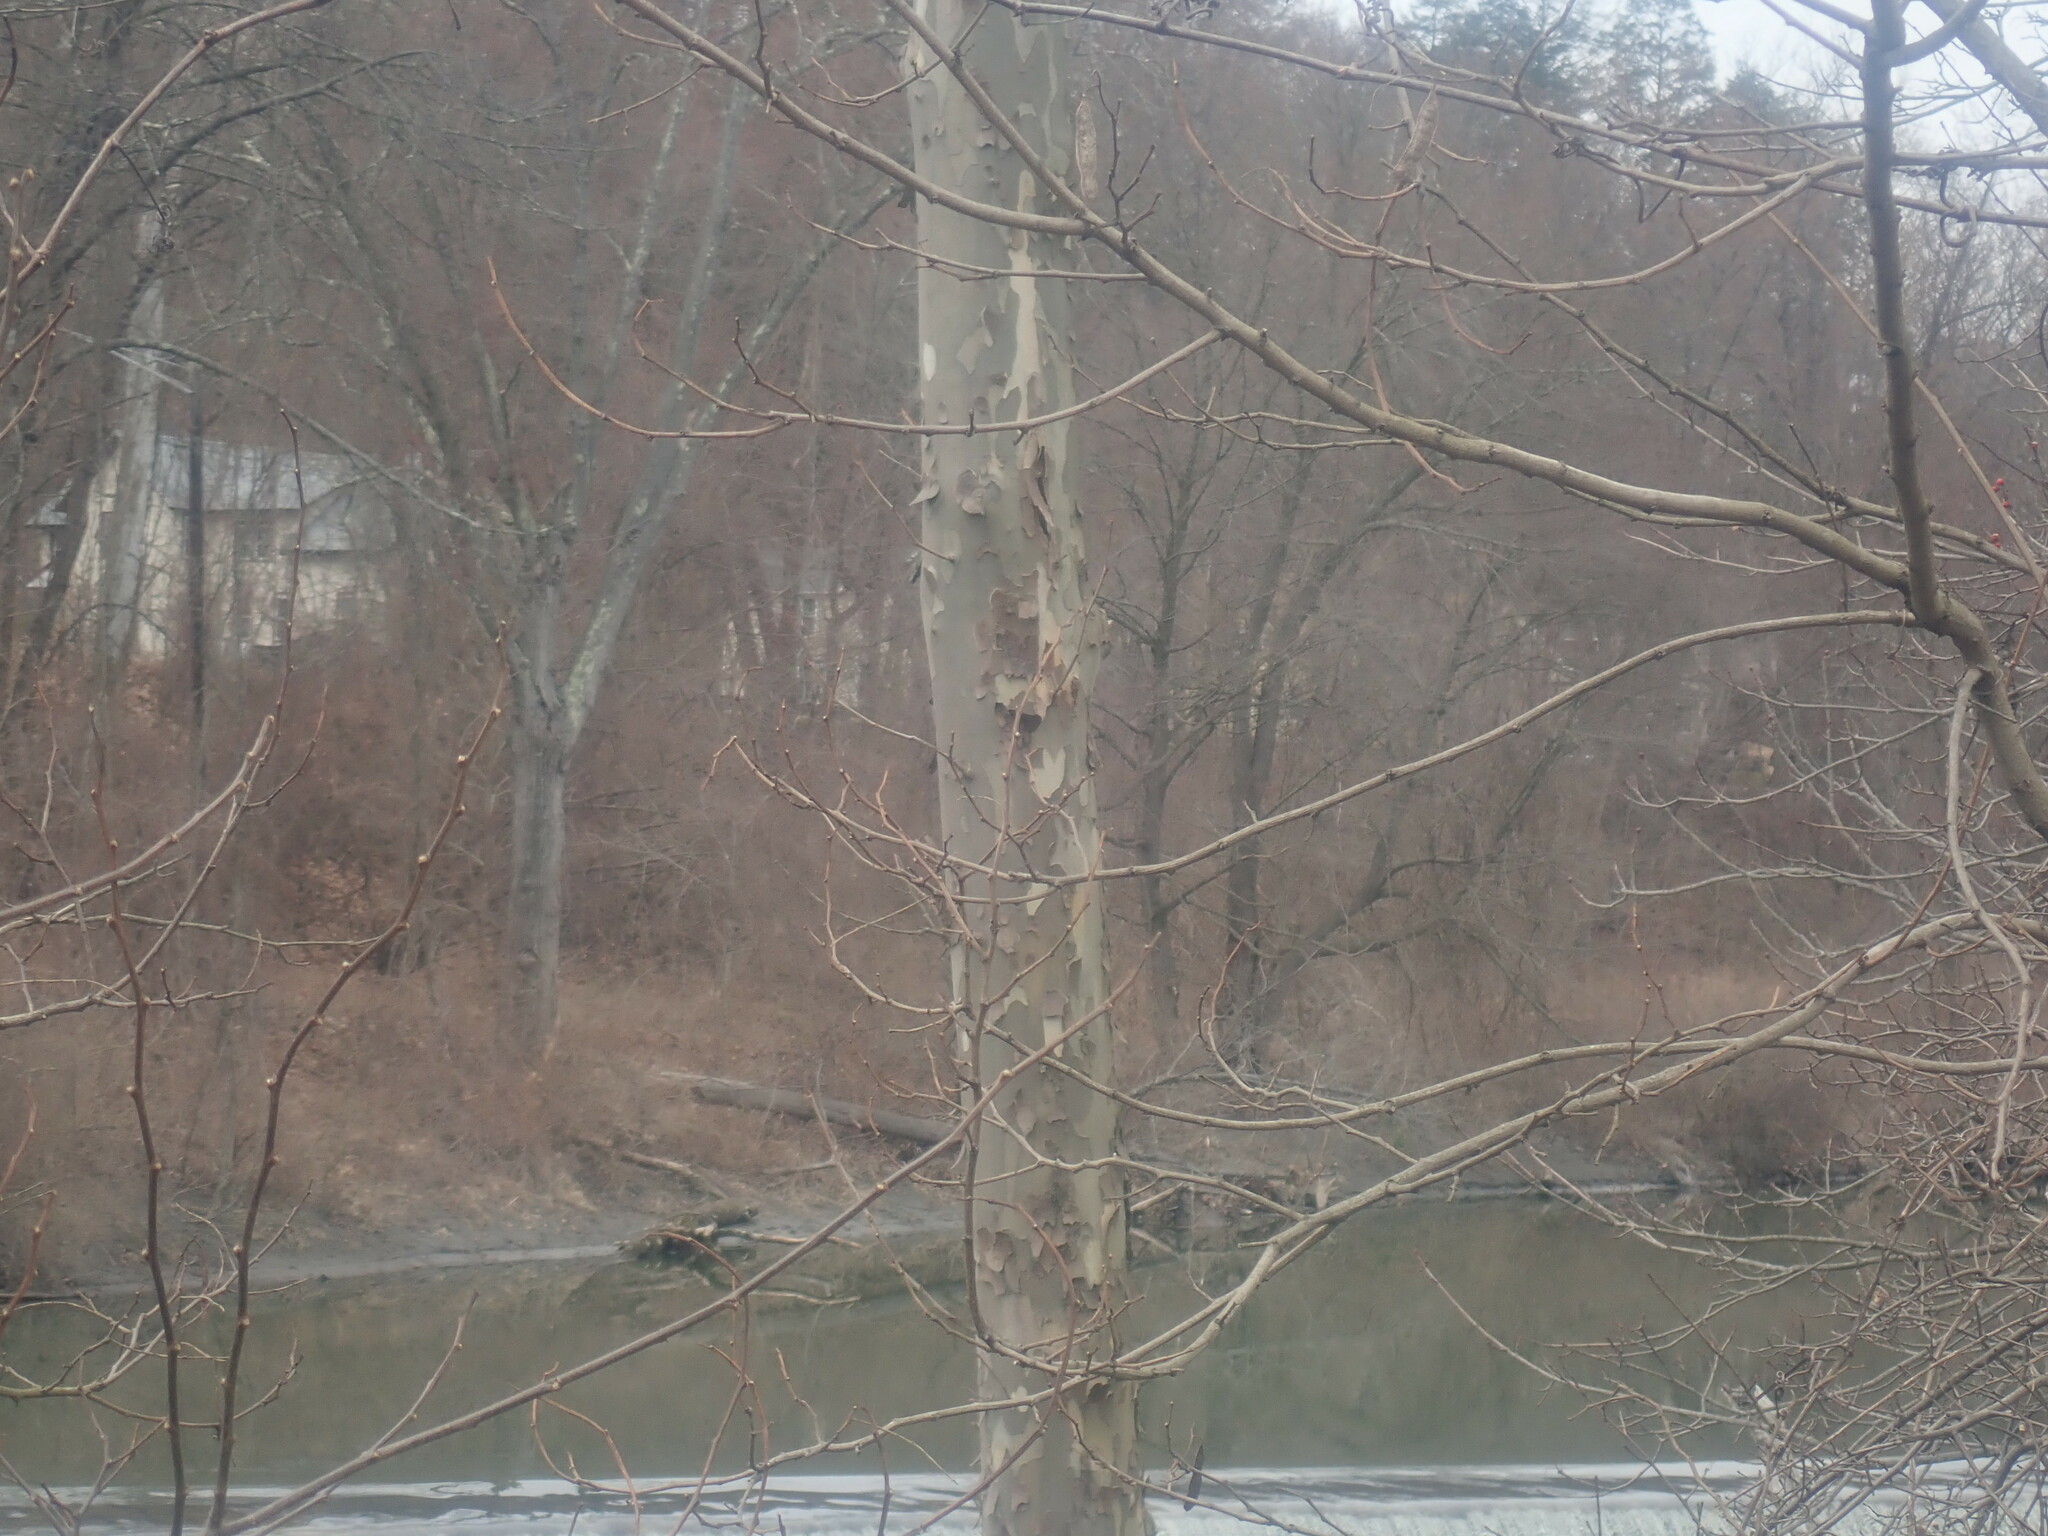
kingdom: Plantae
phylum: Tracheophyta
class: Magnoliopsida
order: Proteales
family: Platanaceae
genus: Platanus
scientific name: Platanus occidentalis
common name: American sycamore
